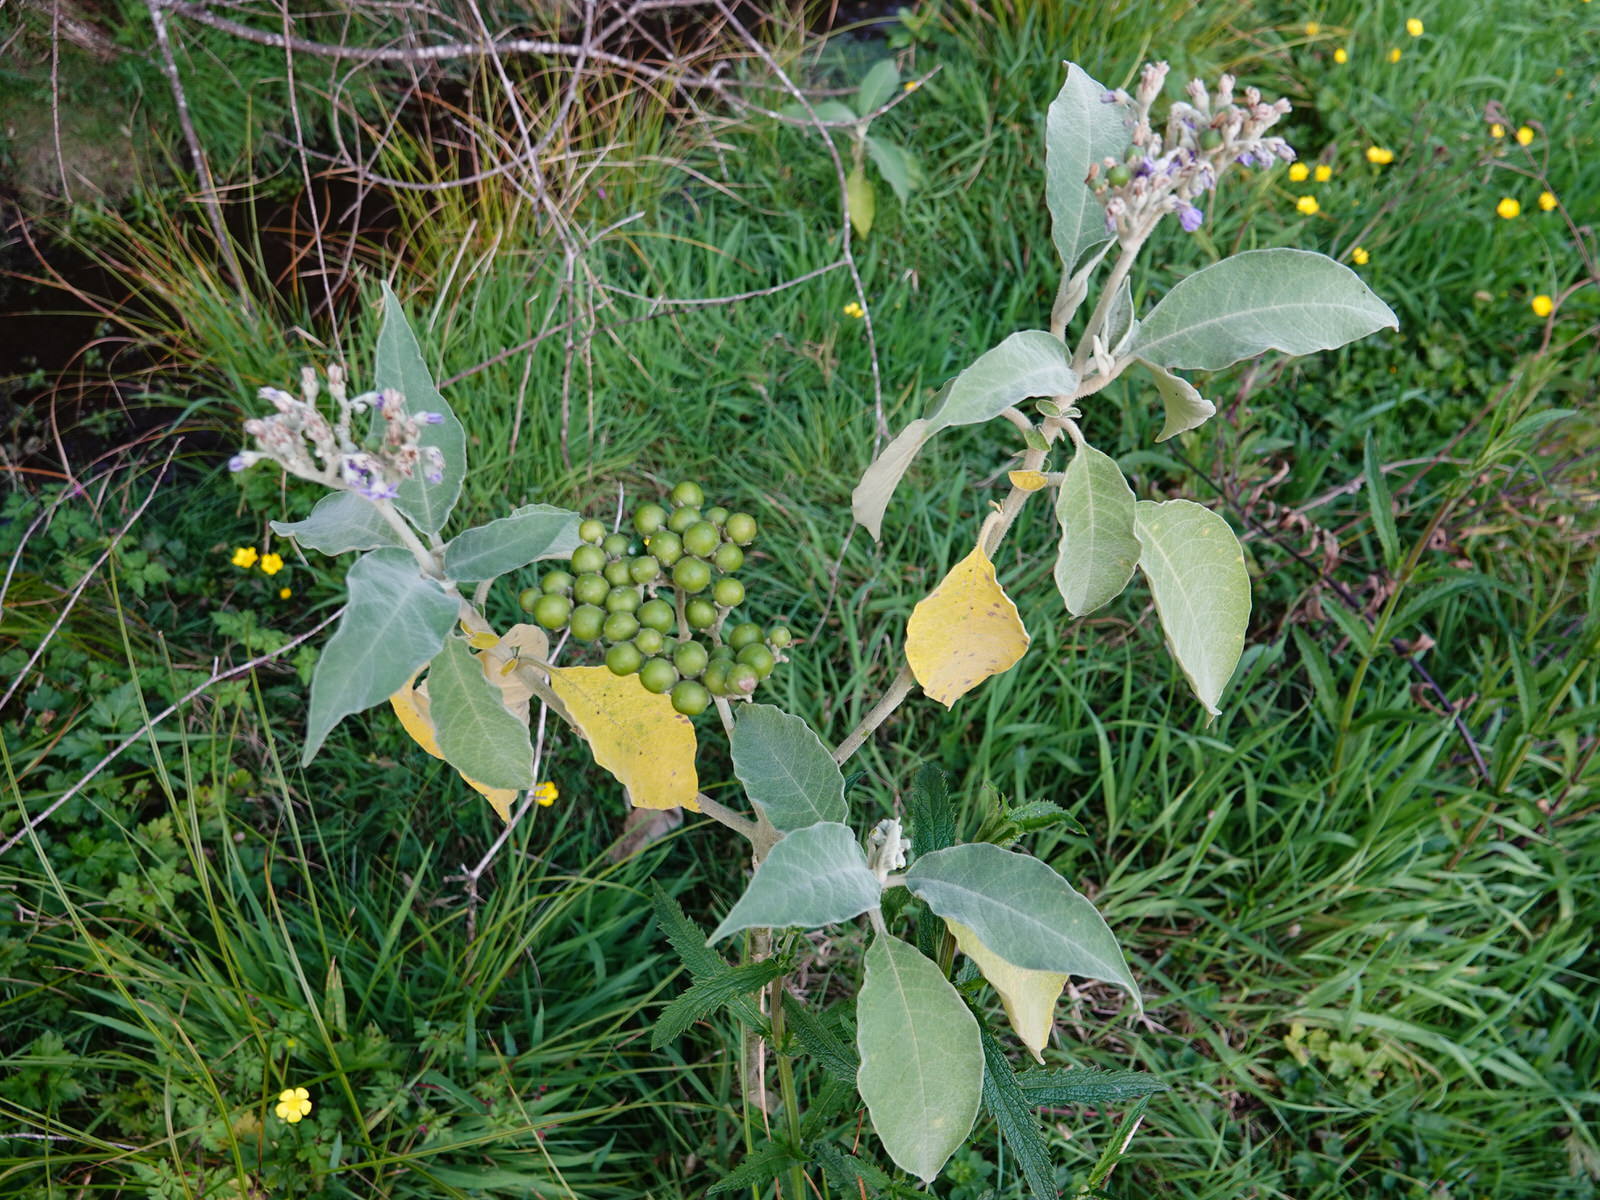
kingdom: Plantae
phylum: Tracheophyta
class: Magnoliopsida
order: Solanales
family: Solanaceae
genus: Solanum
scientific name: Solanum mauritianum
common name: Earleaf nightshade
